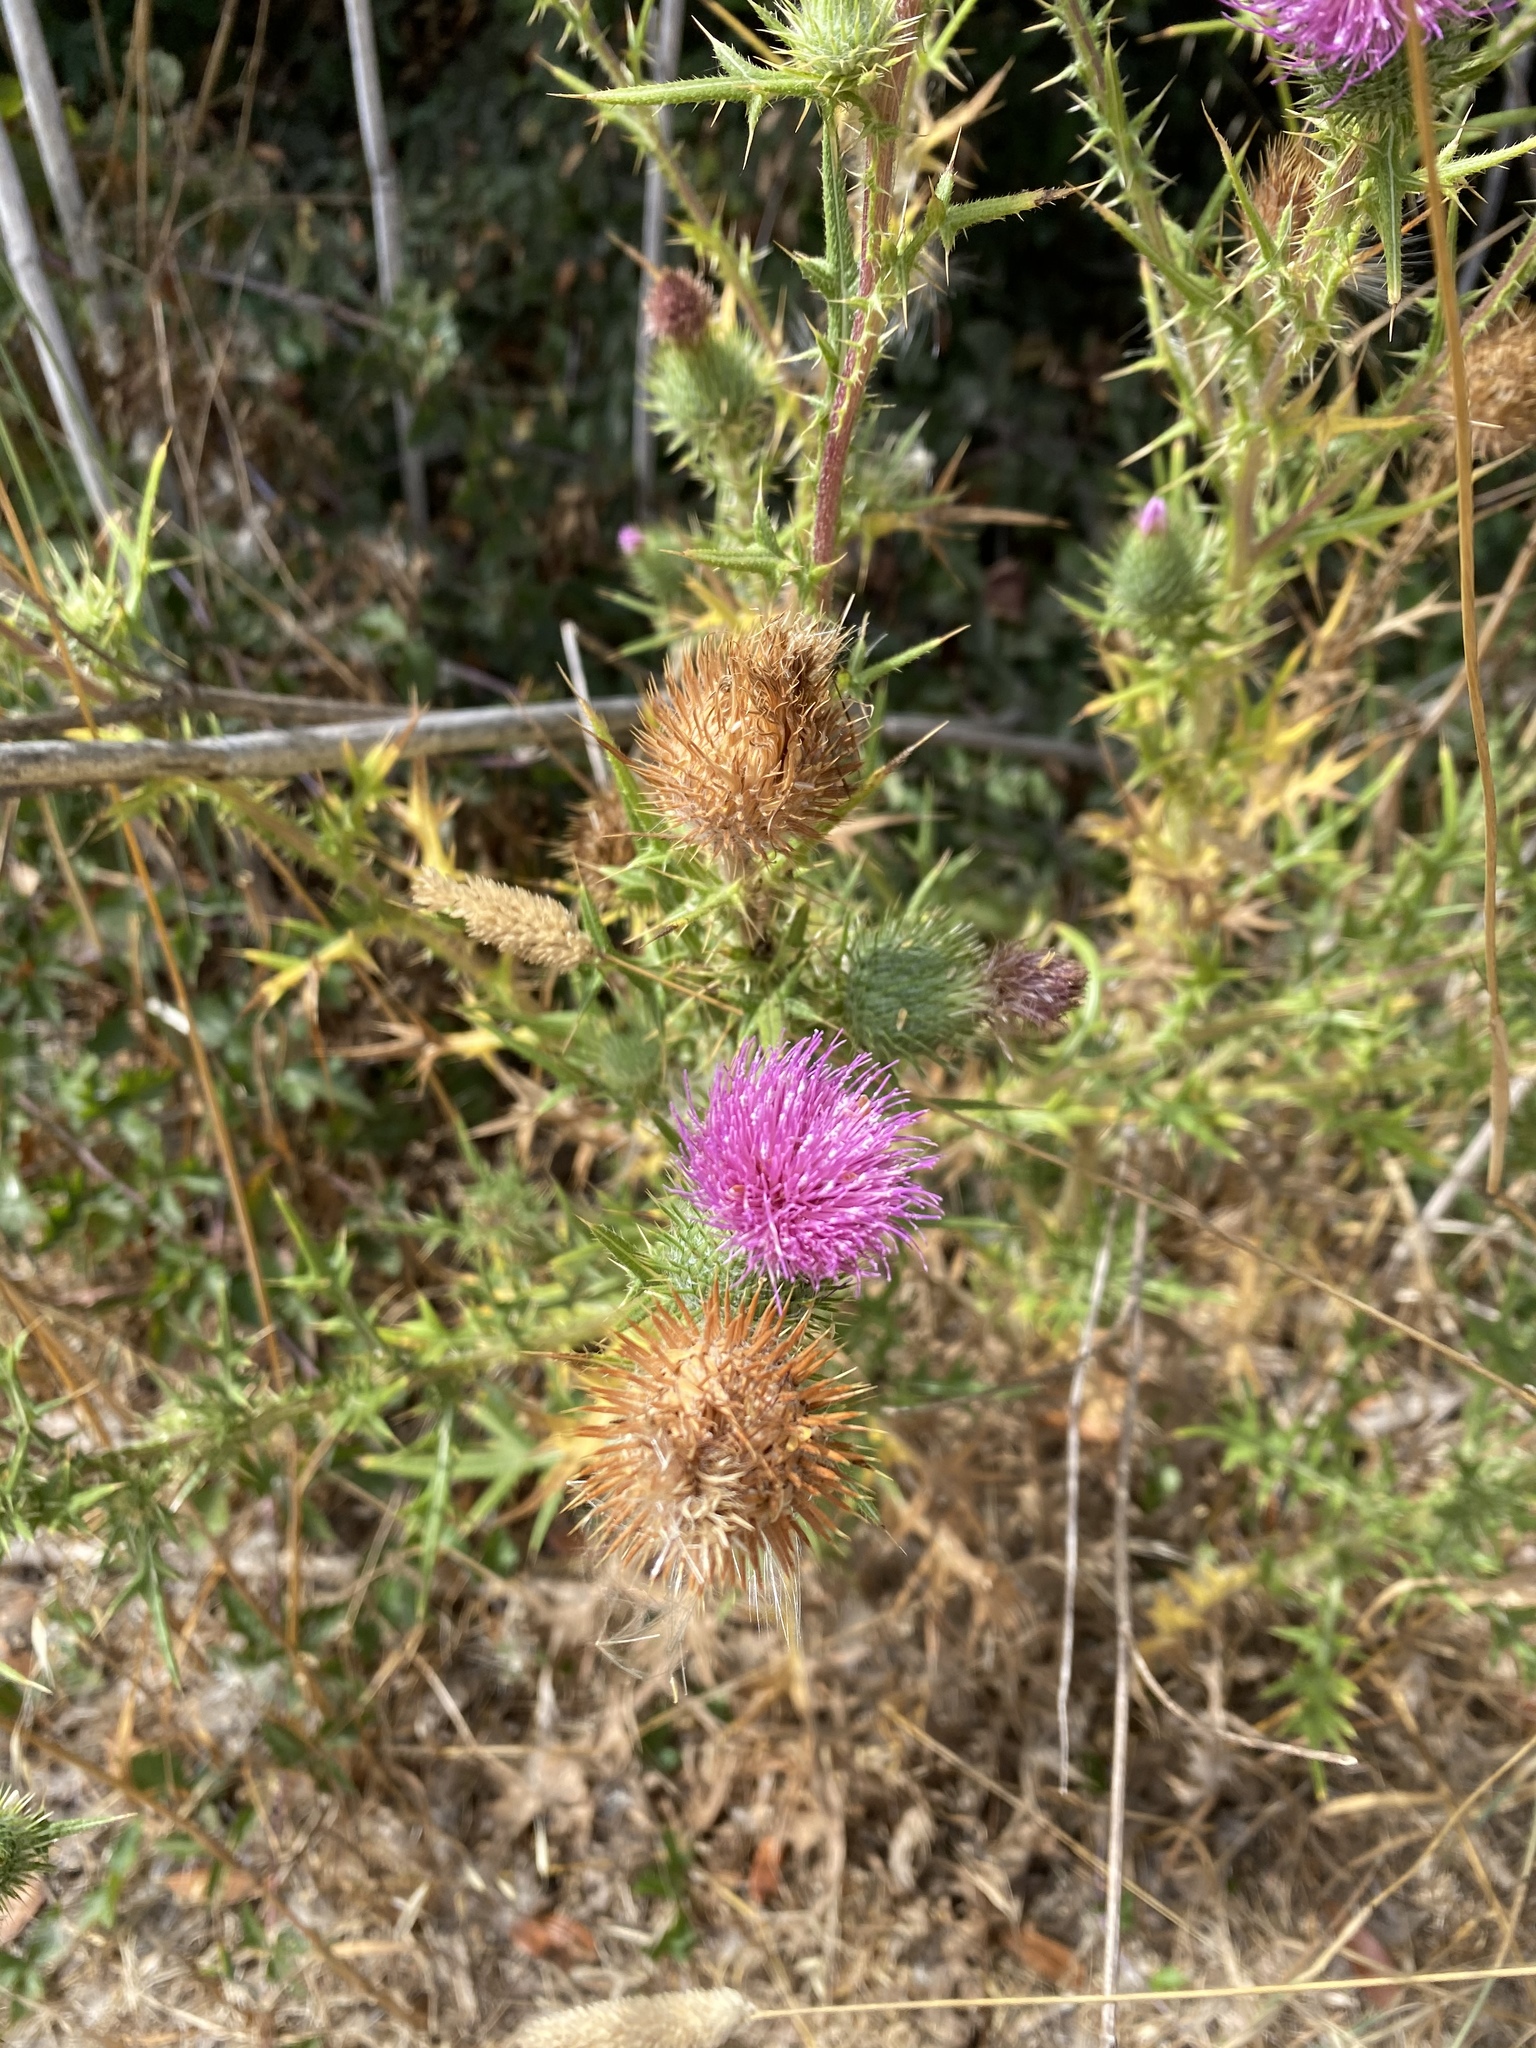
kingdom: Plantae
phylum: Tracheophyta
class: Magnoliopsida
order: Asterales
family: Asteraceae
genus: Cirsium
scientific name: Cirsium vulgare
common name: Bull thistle
